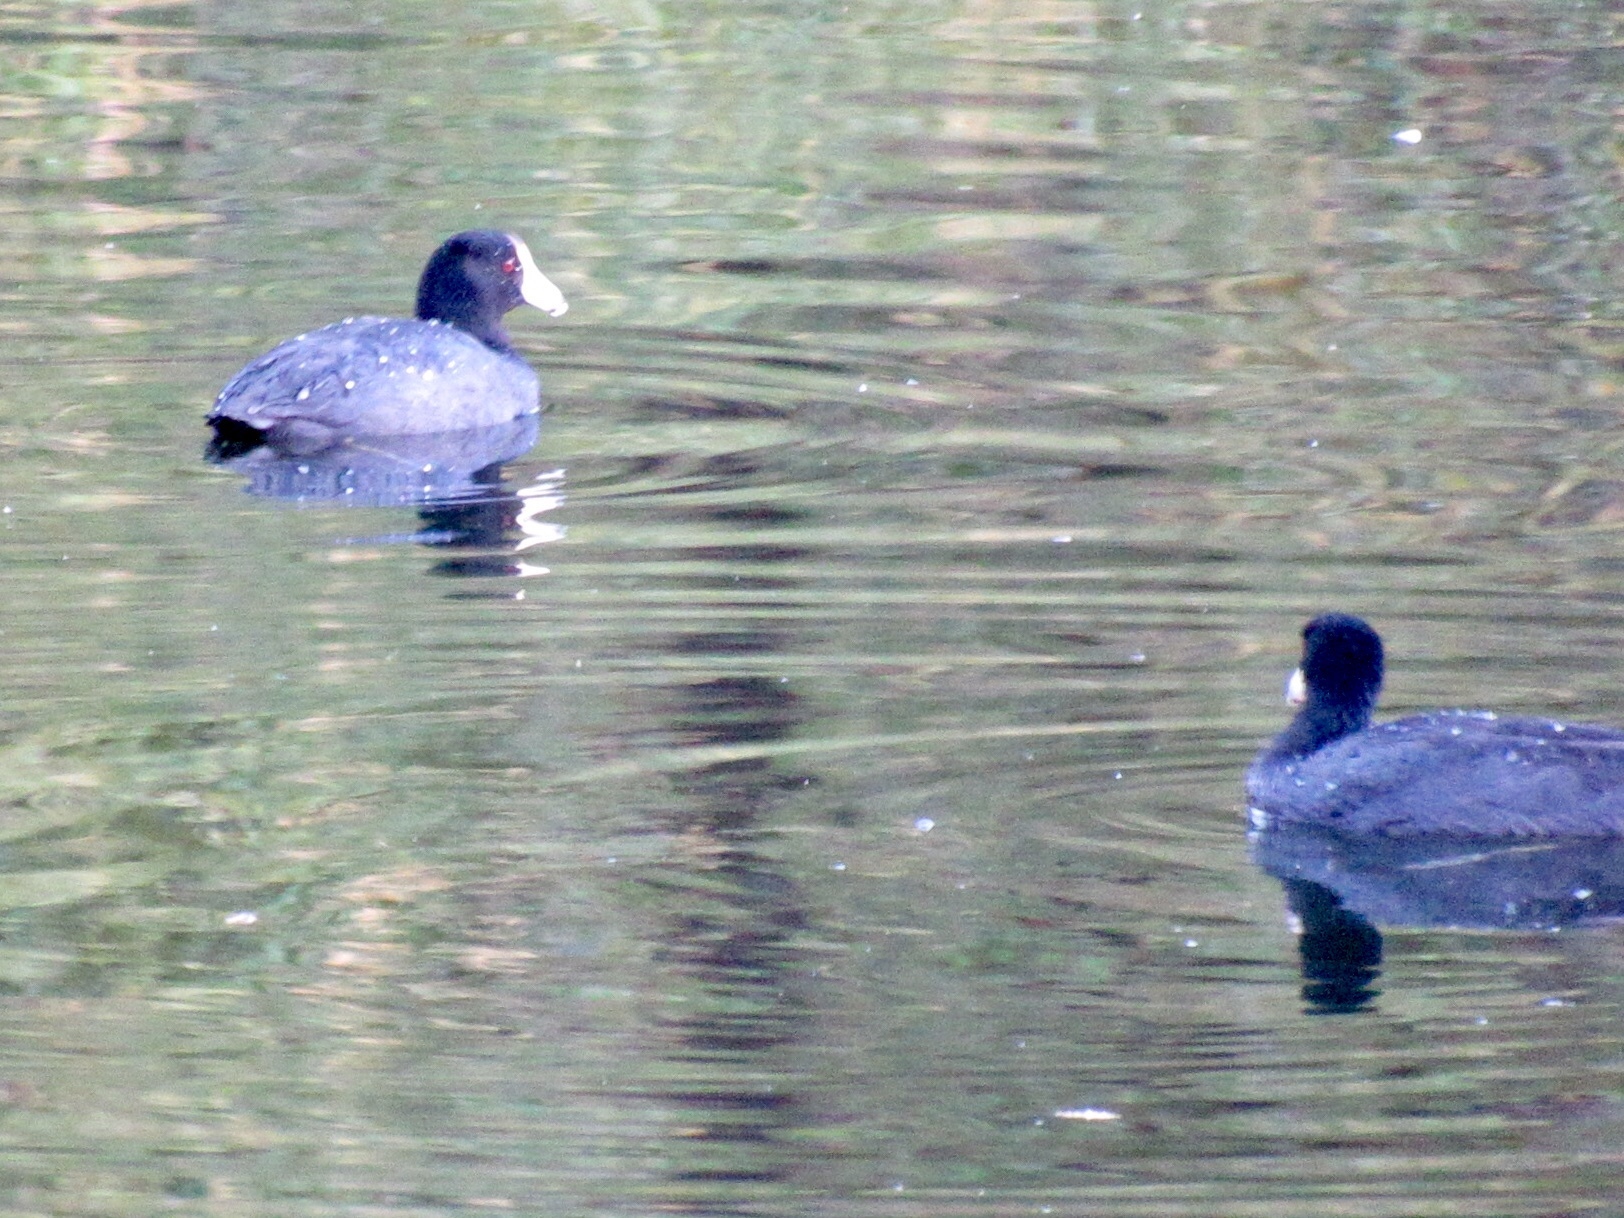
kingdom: Animalia
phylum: Chordata
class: Aves
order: Gruiformes
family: Rallidae
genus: Fulica
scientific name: Fulica americana
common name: American coot
